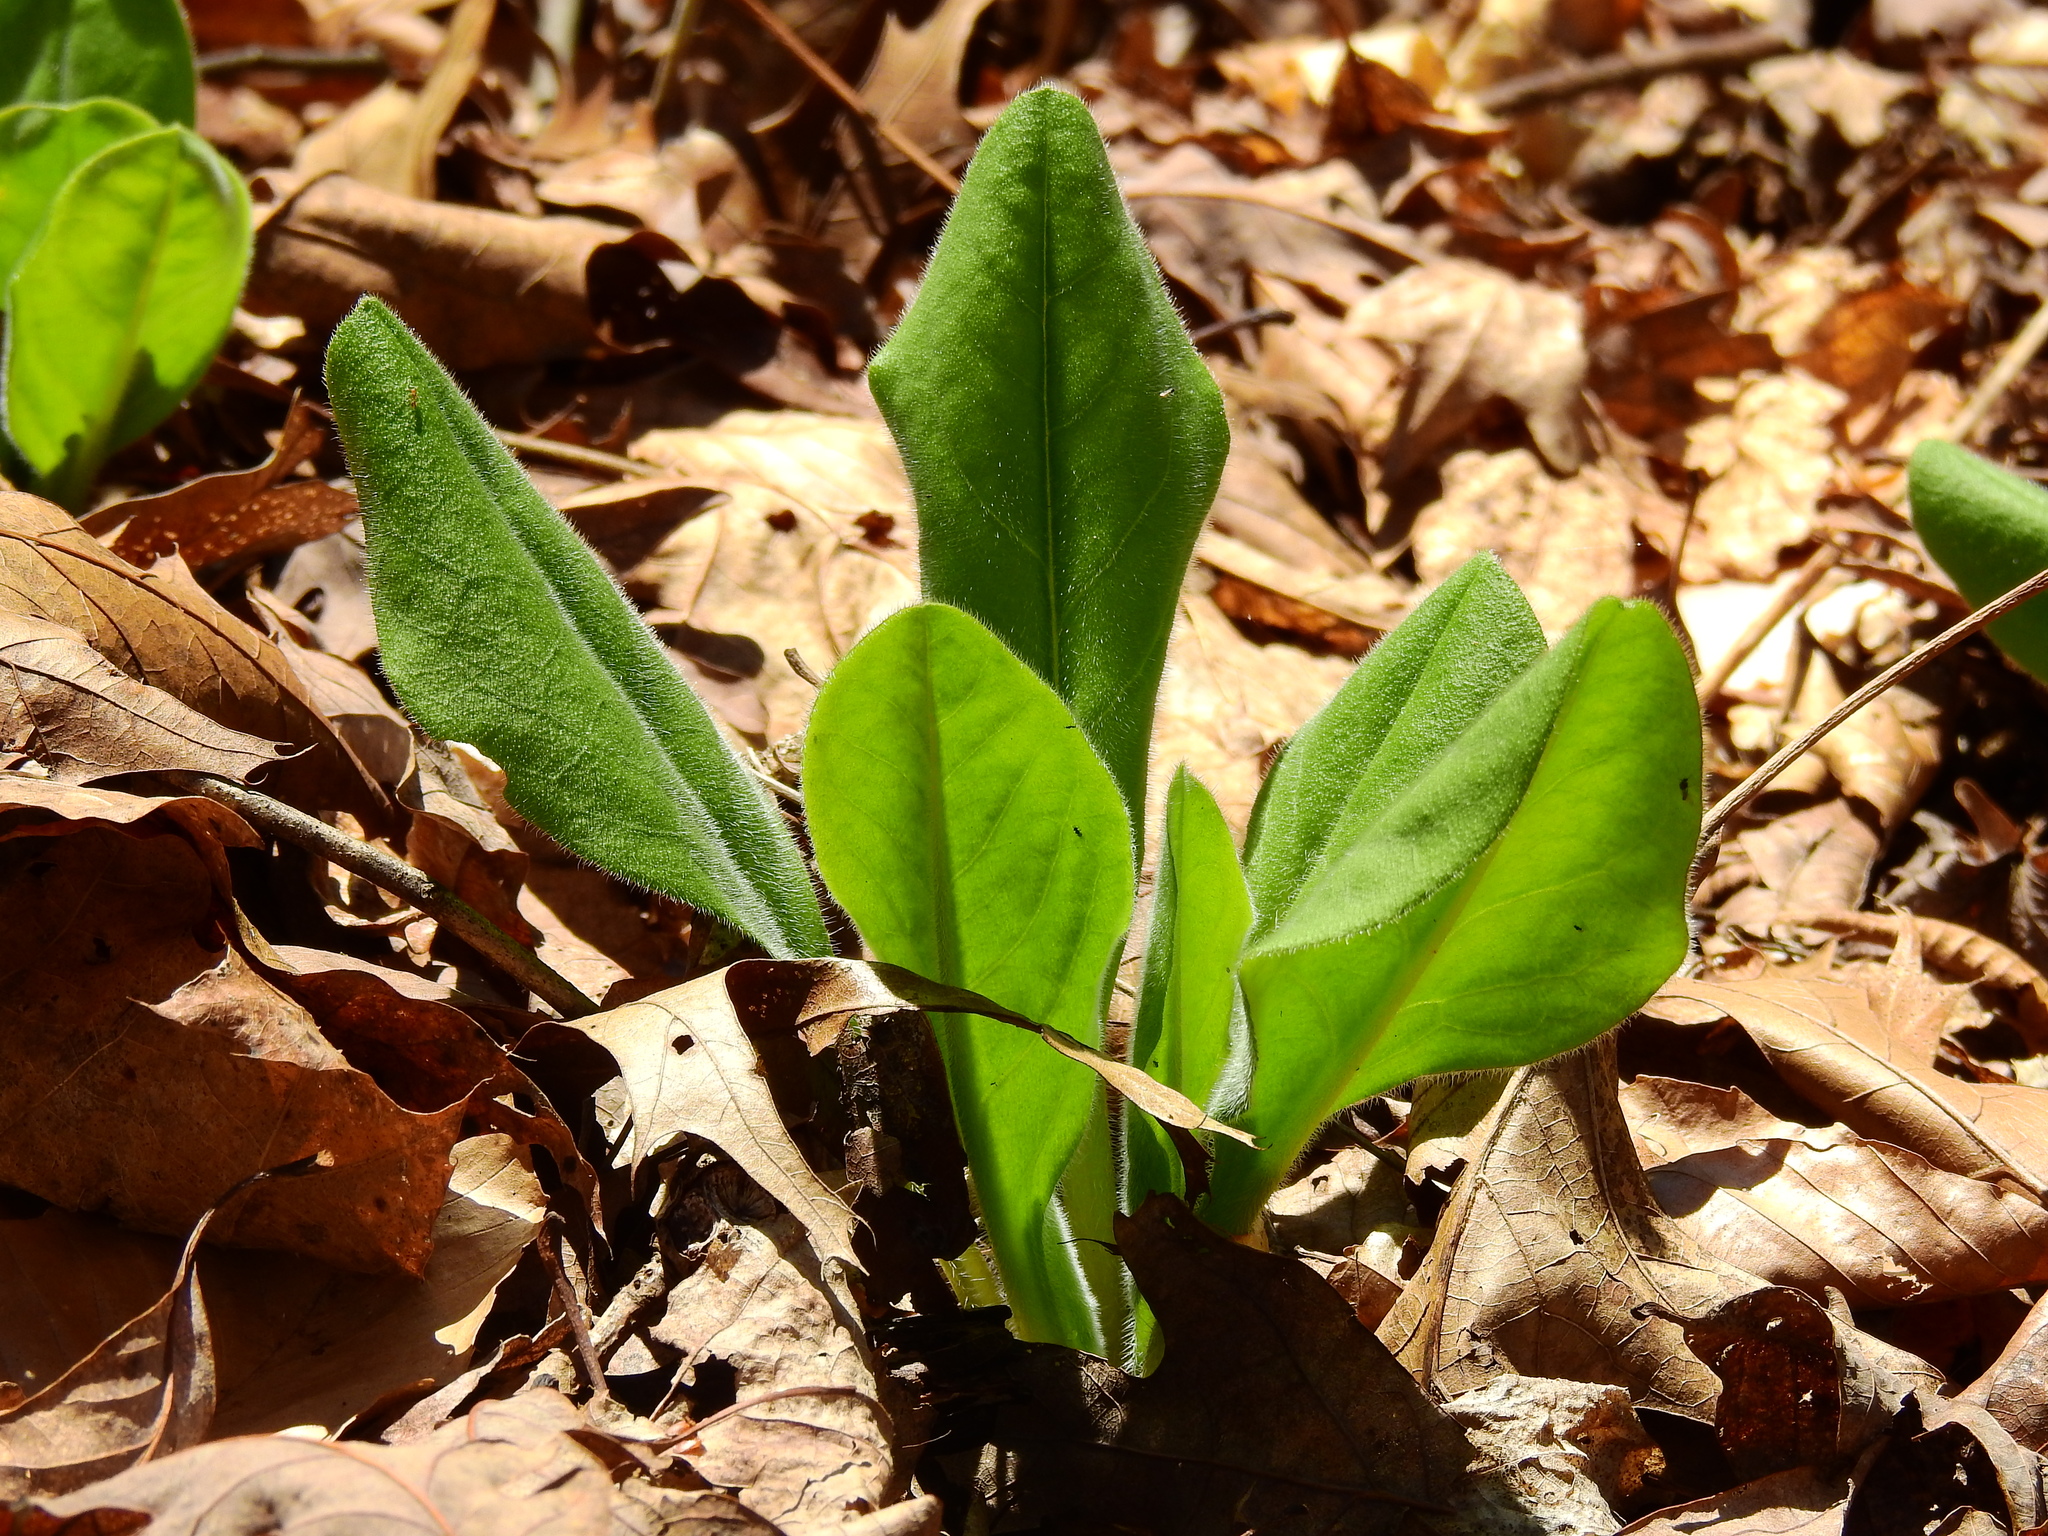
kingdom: Plantae
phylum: Tracheophyta
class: Magnoliopsida
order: Boraginales
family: Boraginaceae
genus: Andersonglossum
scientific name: Andersonglossum virginianum
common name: Wild comfrey
